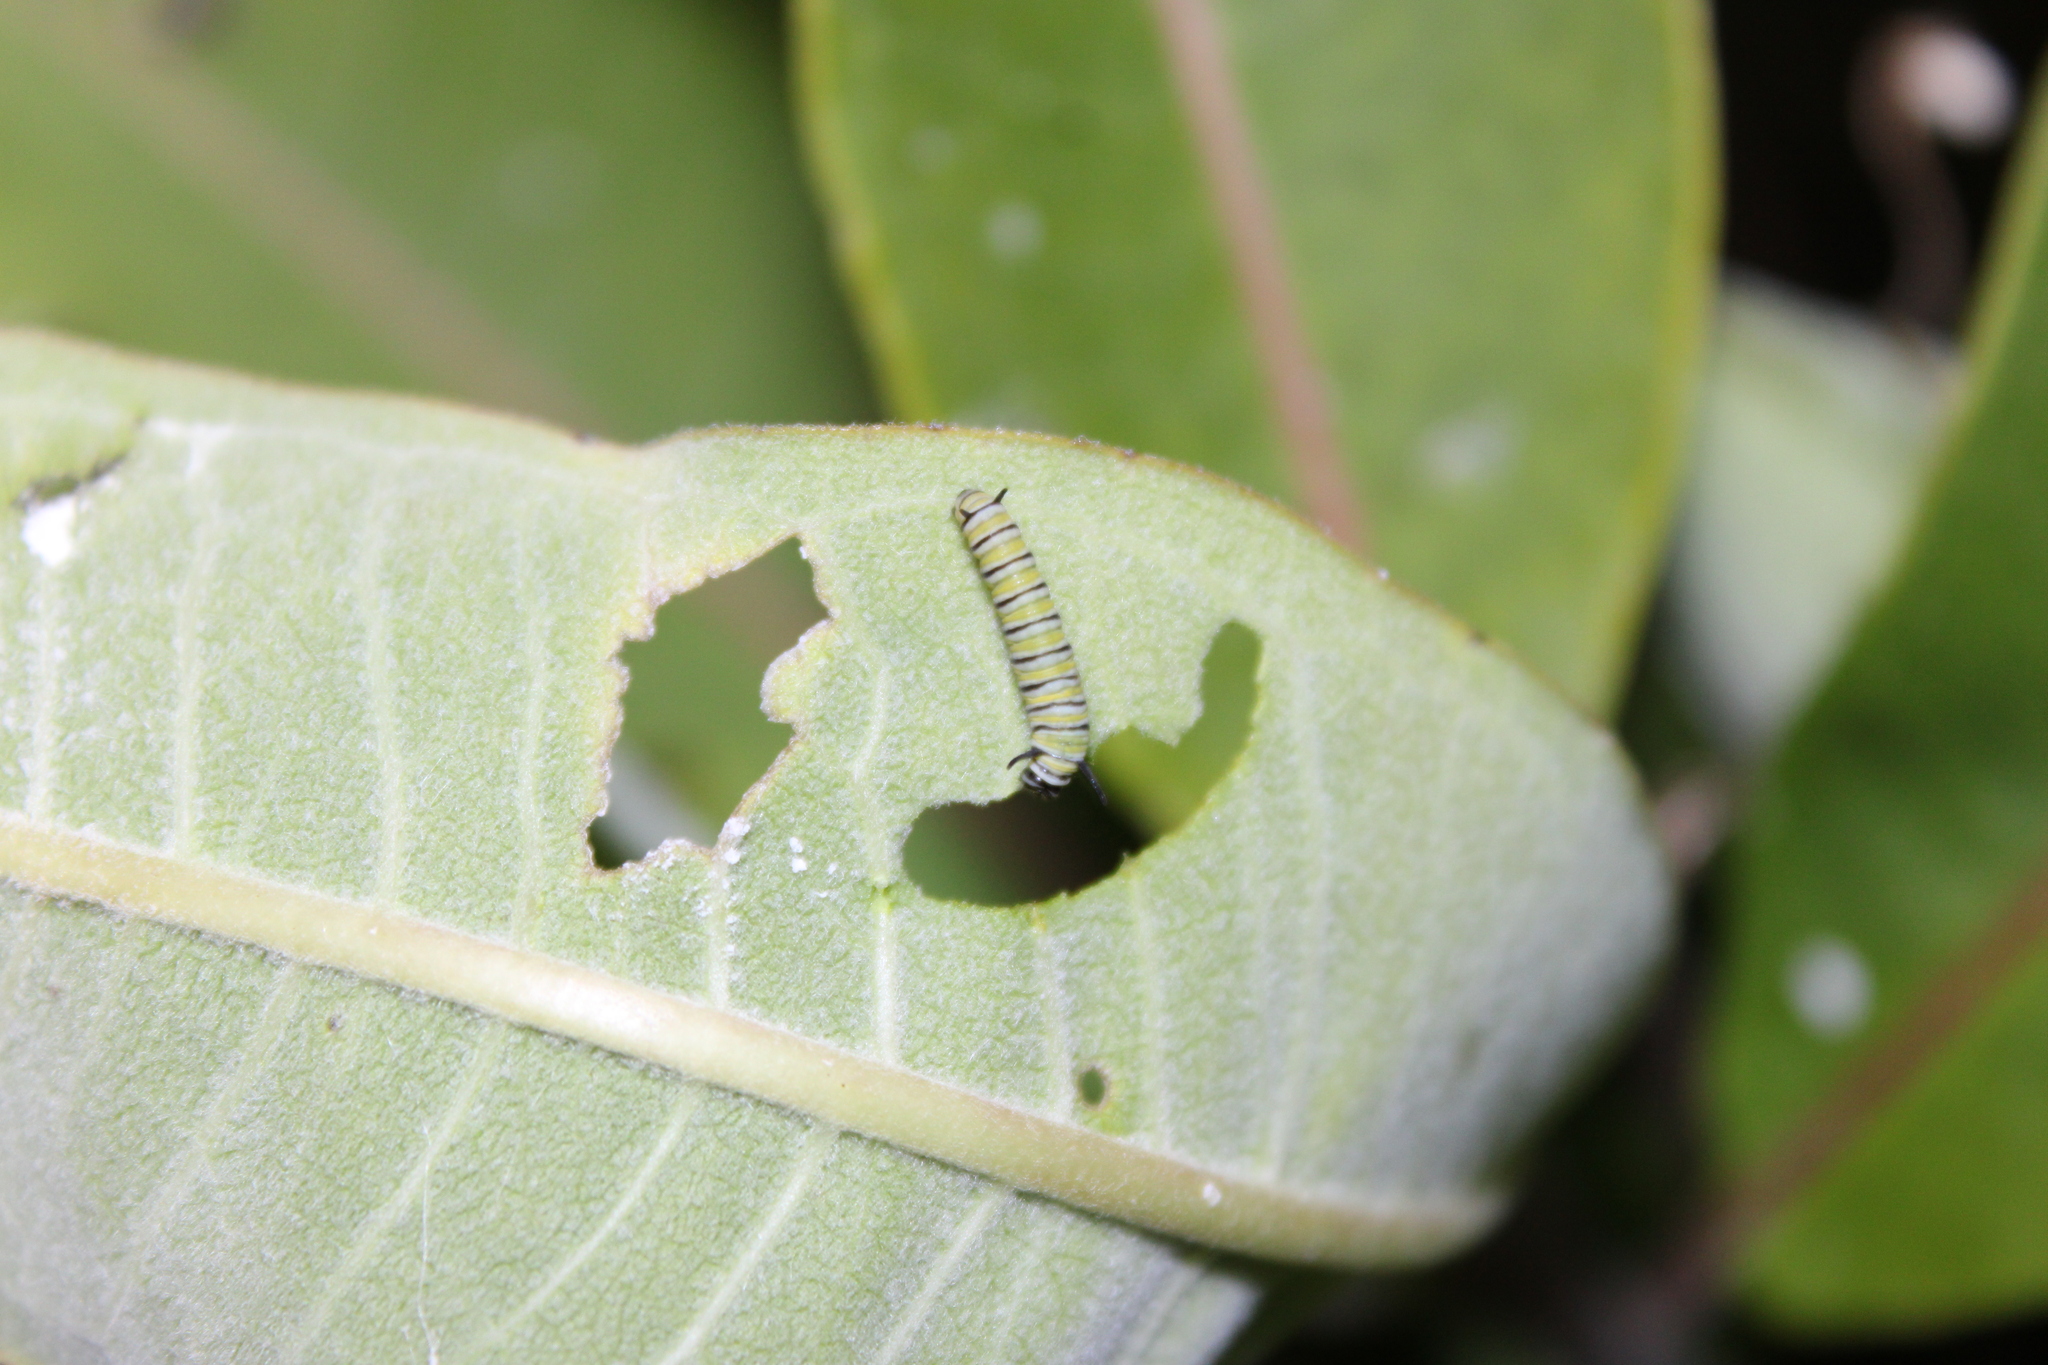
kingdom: Animalia
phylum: Arthropoda
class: Insecta
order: Lepidoptera
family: Nymphalidae
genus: Danaus
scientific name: Danaus plexippus
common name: Monarch
